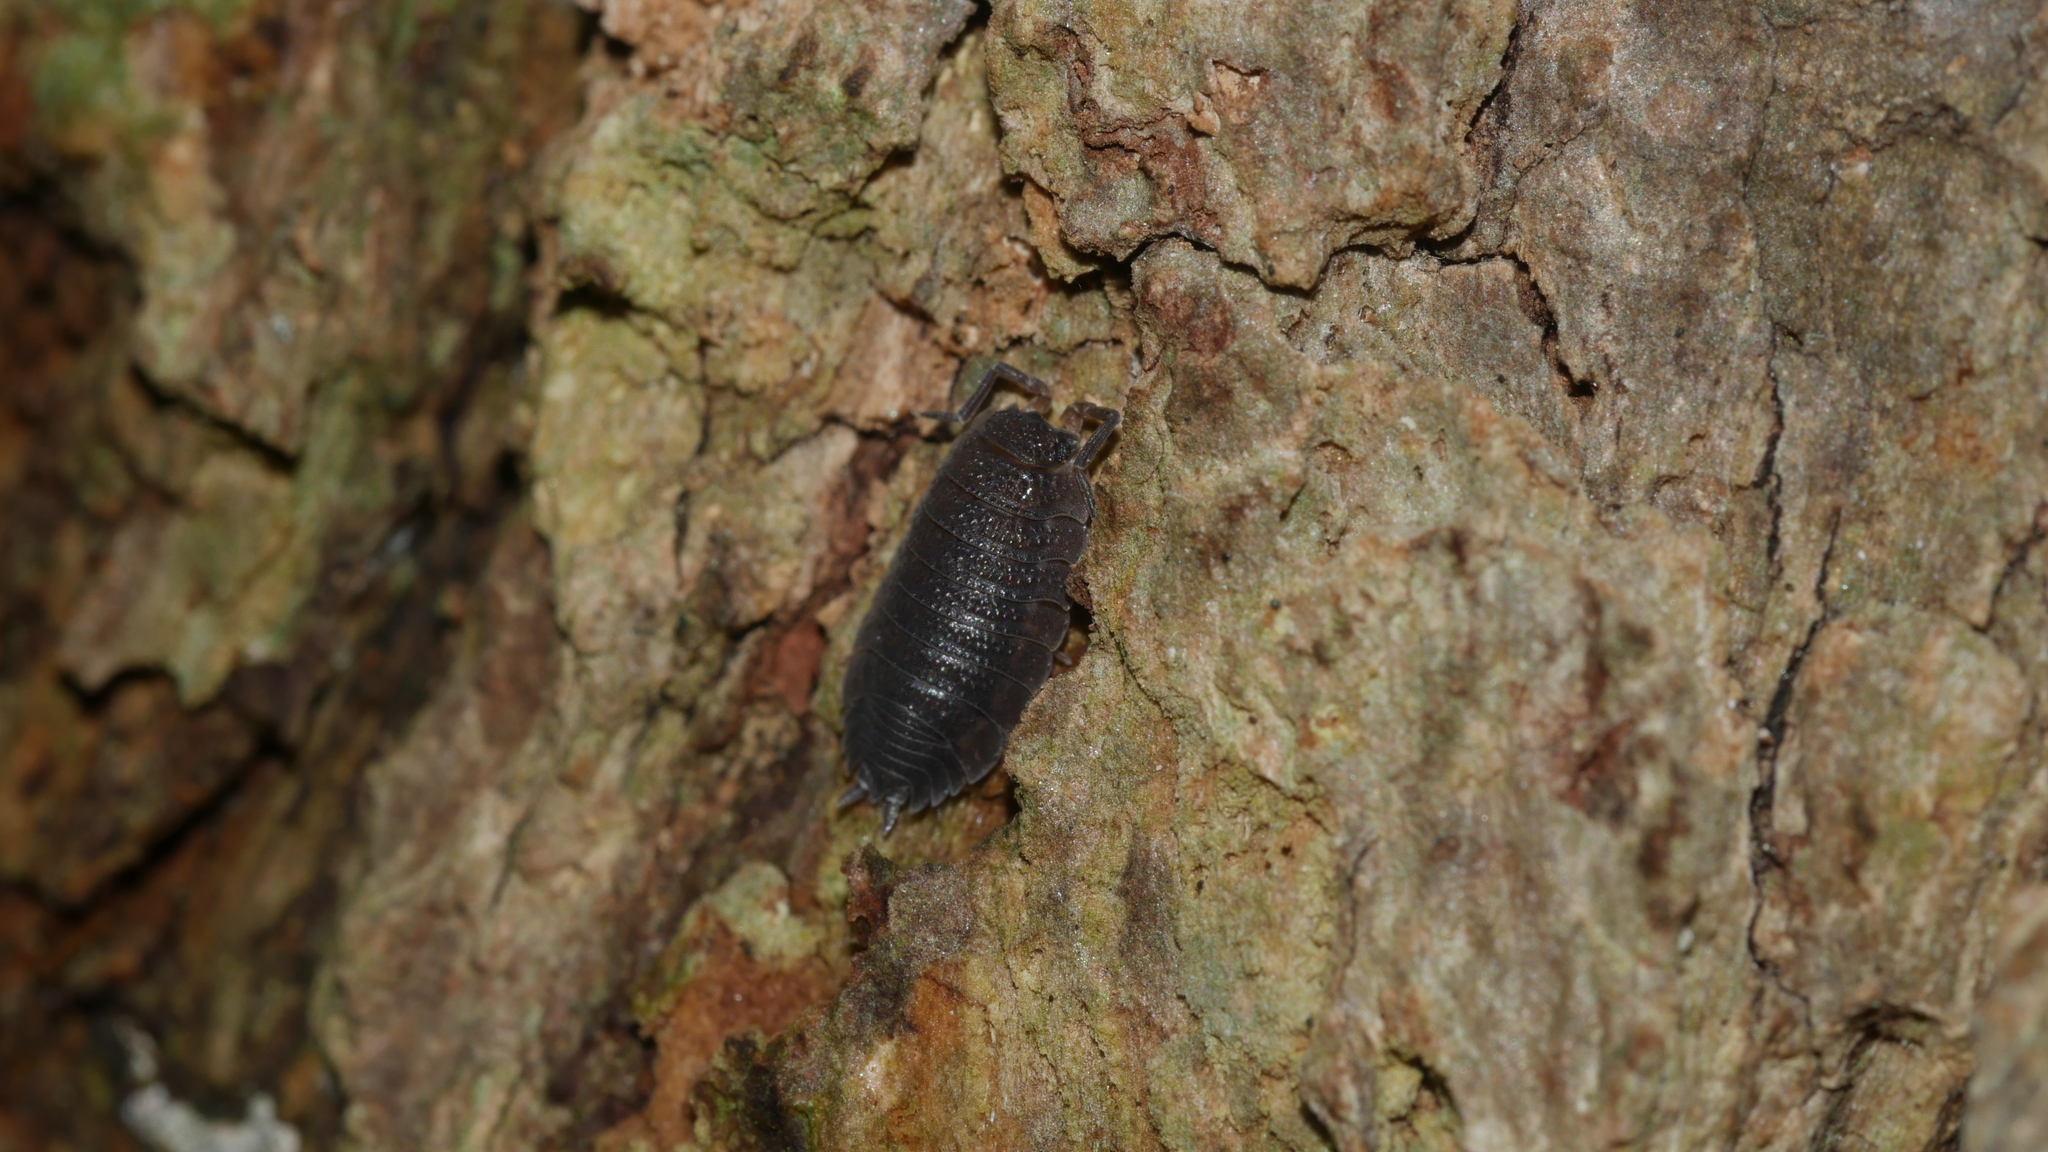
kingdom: Animalia
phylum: Arthropoda
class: Malacostraca
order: Isopoda
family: Porcellionidae
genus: Porcellio
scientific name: Porcellio scaber
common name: Common rough woodlouse
